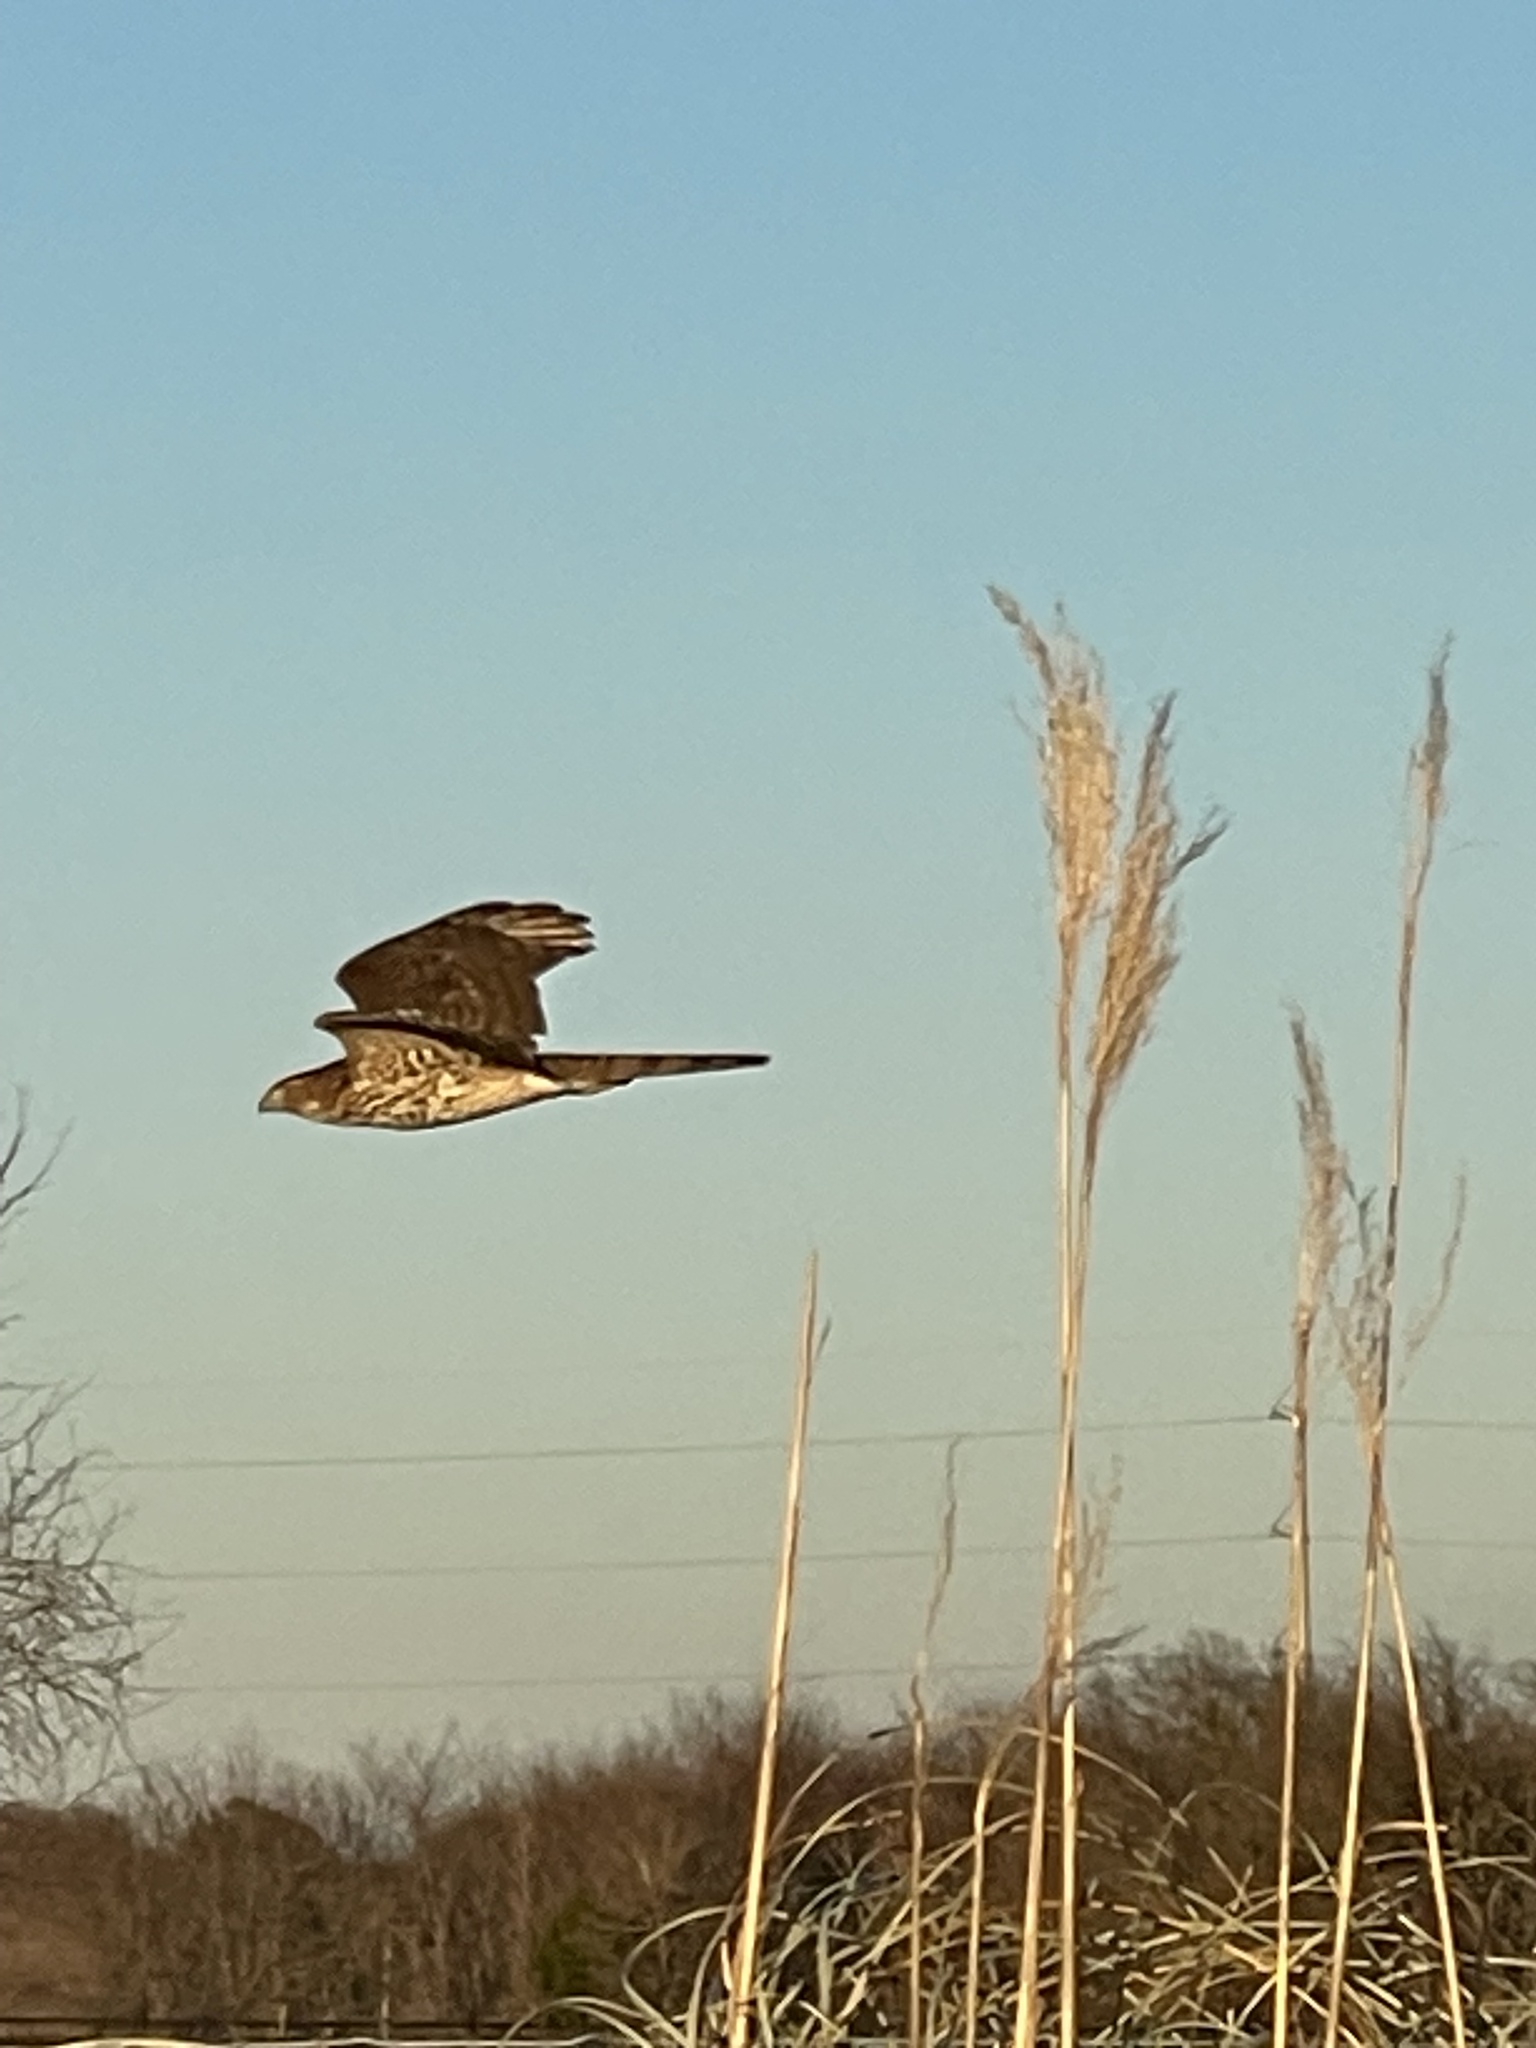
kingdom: Animalia
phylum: Chordata
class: Aves
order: Accipitriformes
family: Accipitridae
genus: Accipiter
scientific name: Accipiter cooperii
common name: Cooper's hawk
